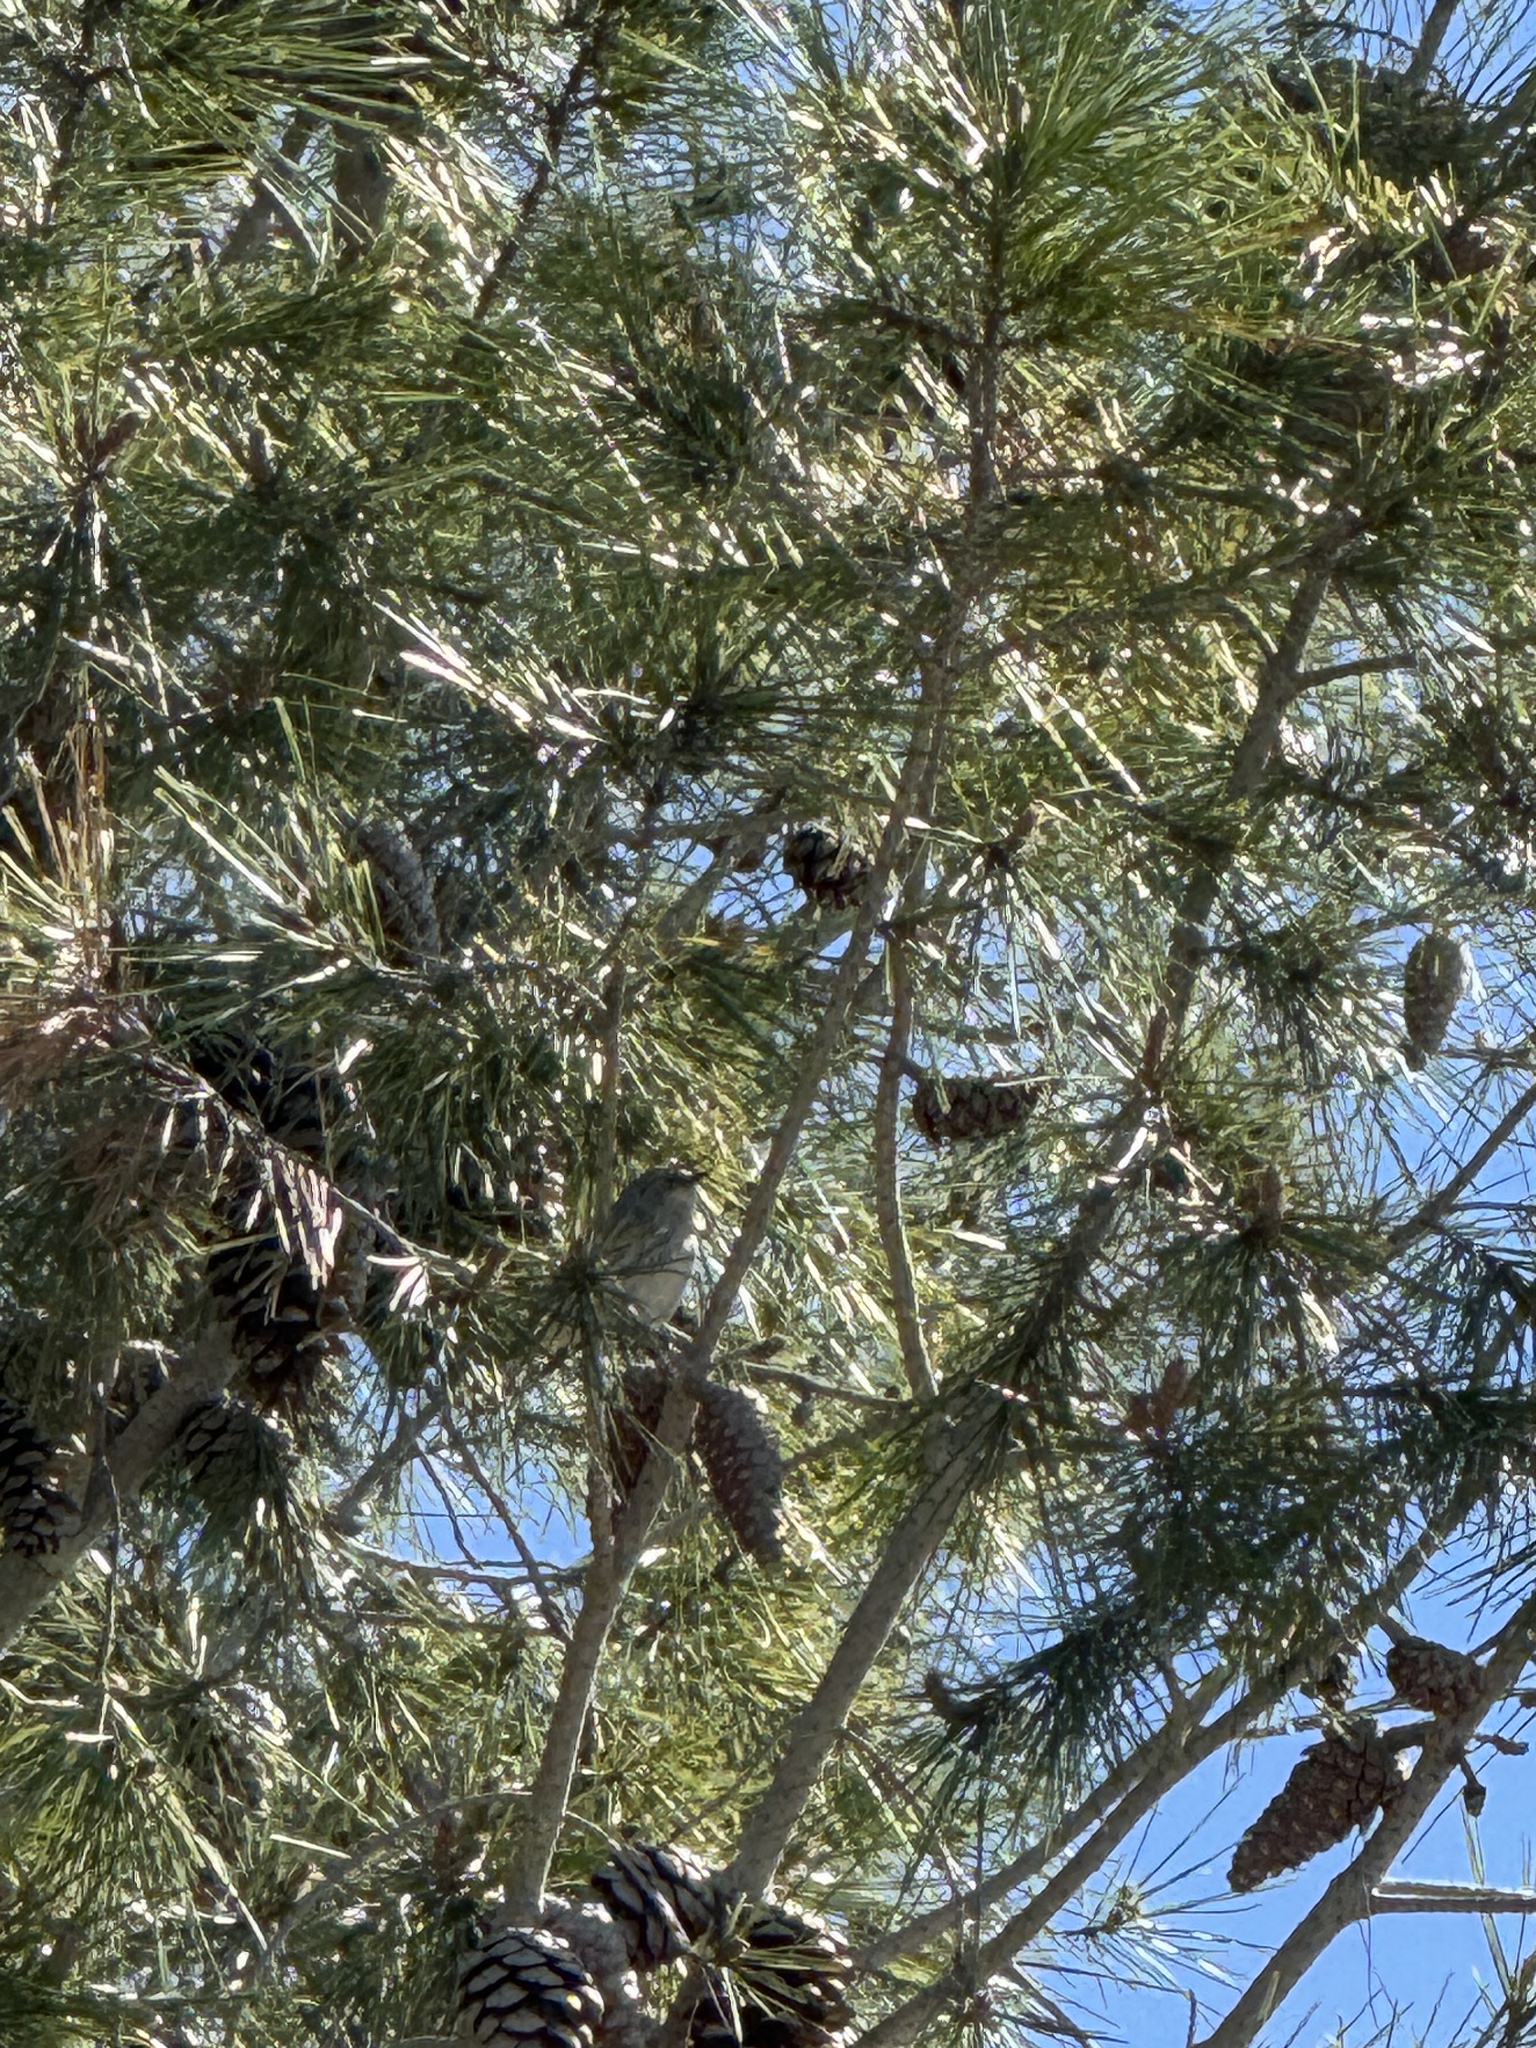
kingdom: Animalia
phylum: Chordata
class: Aves
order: Passeriformes
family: Parulidae
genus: Setophaga
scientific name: Setophaga auduboni
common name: Audubon's warbler
